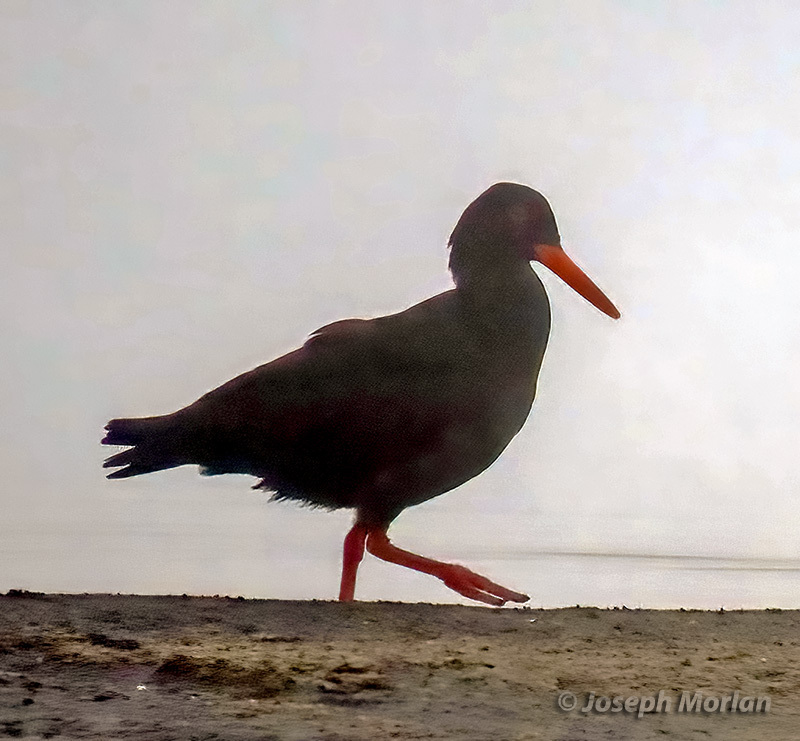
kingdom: Animalia
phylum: Chordata
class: Aves
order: Charadriiformes
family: Haematopodidae
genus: Haematopus
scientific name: Haematopus moquini
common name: African oystercatcher
